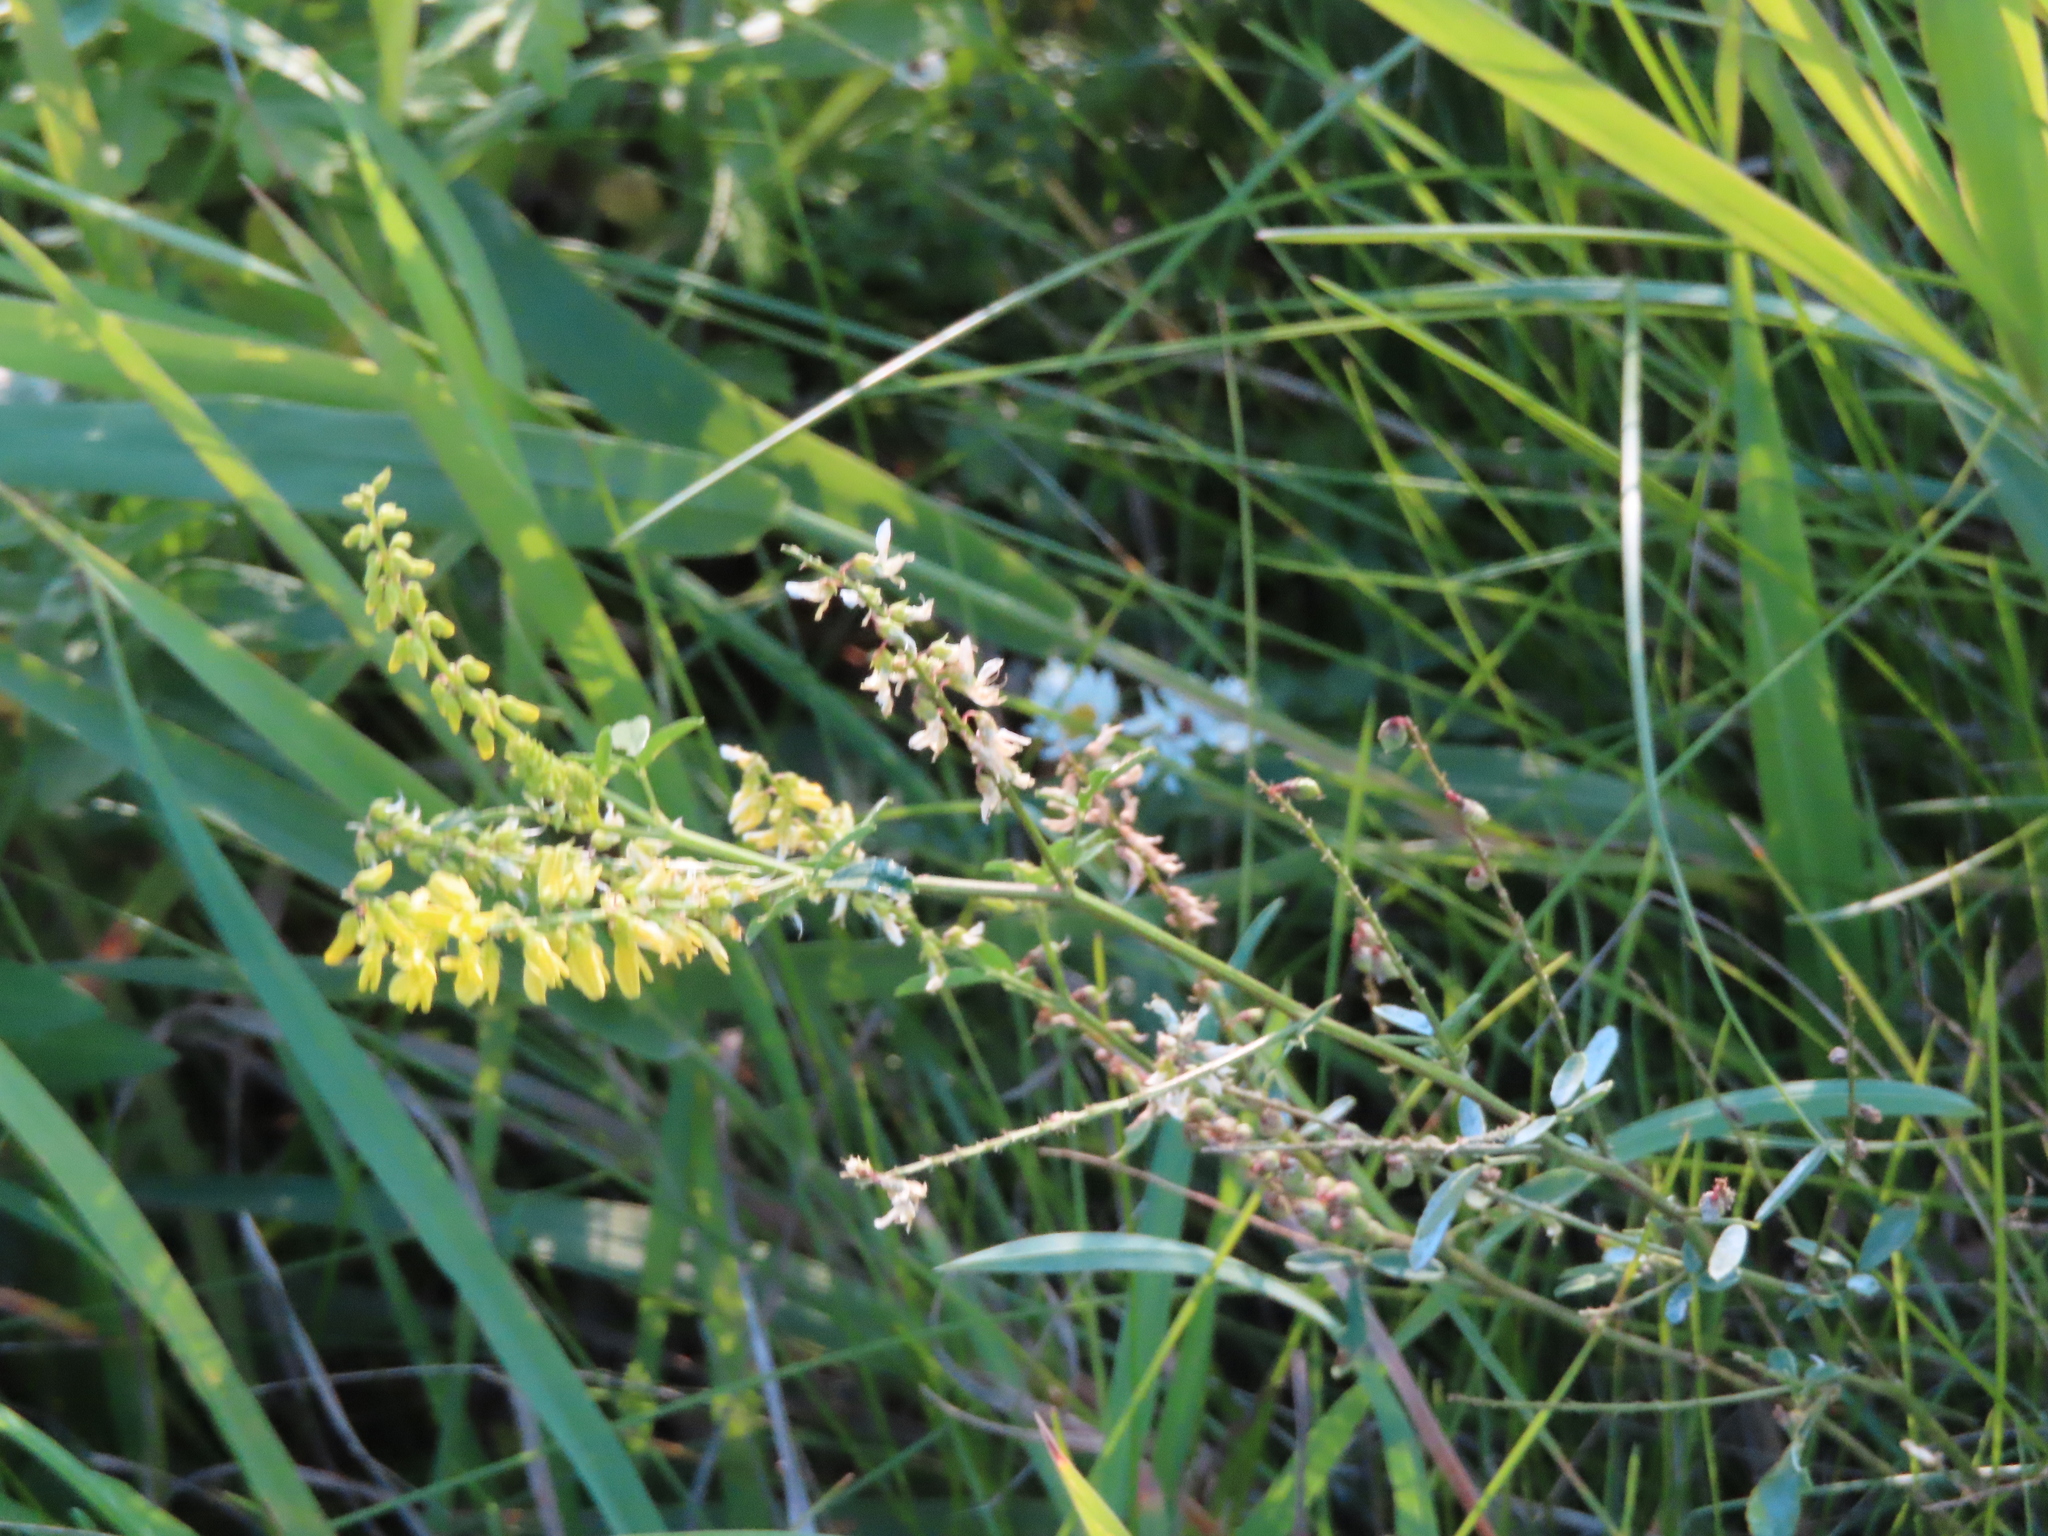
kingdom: Plantae
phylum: Tracheophyta
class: Magnoliopsida
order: Fabales
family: Fabaceae
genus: Melilotus
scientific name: Melilotus officinalis
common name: Sweetclover
